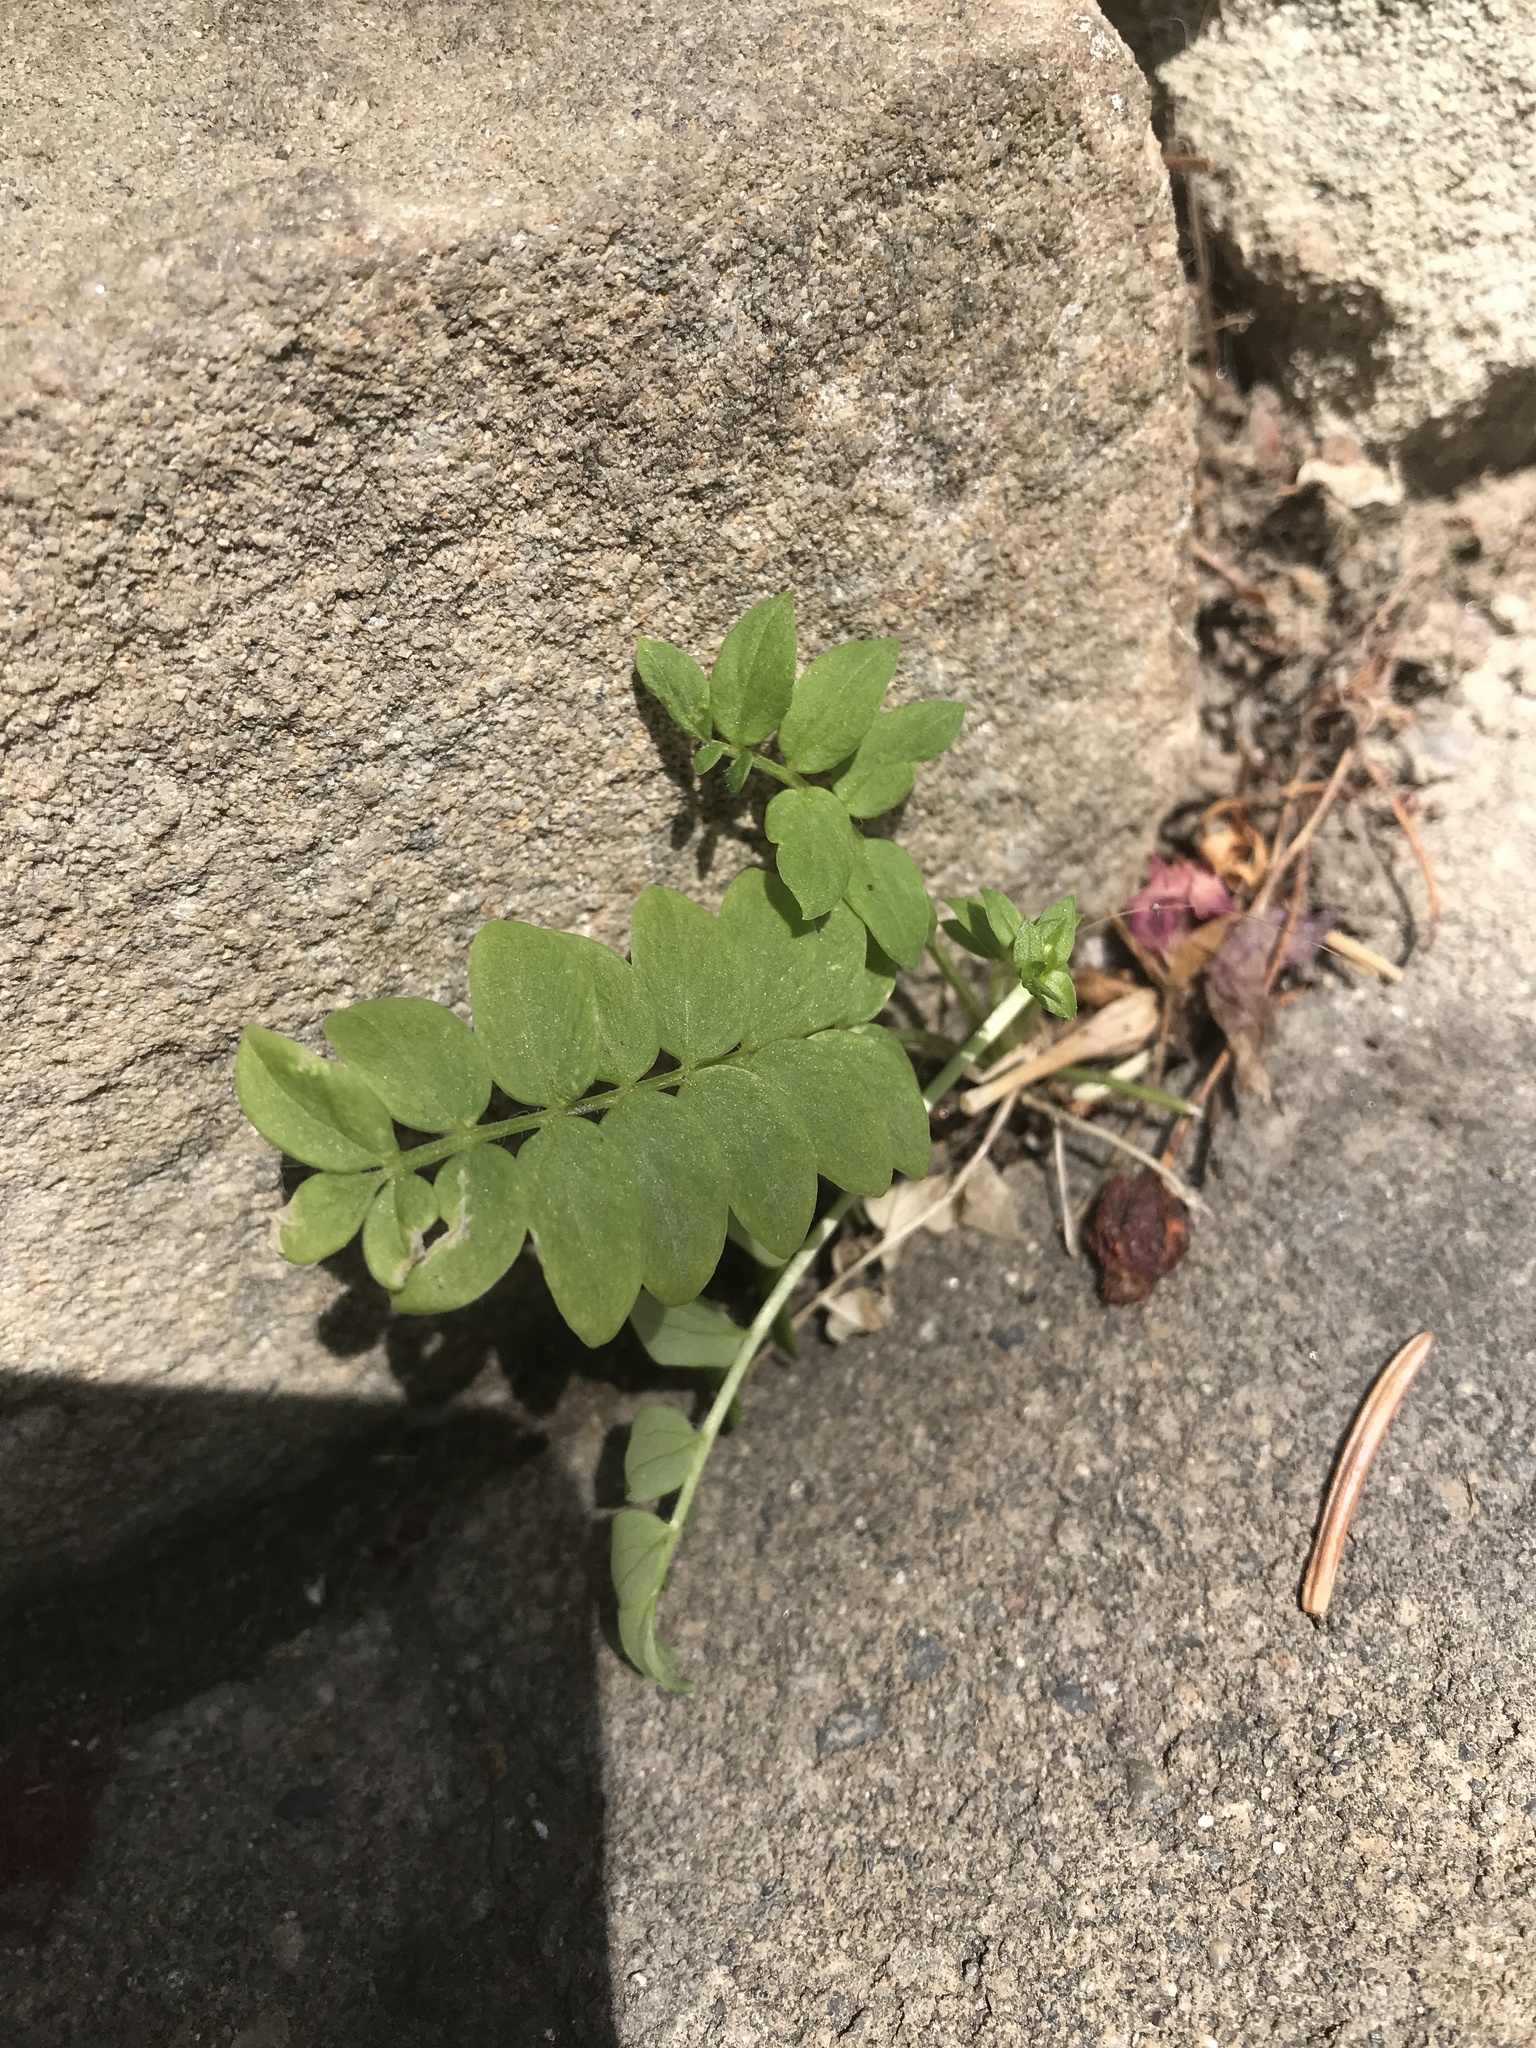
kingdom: Plantae
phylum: Tracheophyta
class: Magnoliopsida
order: Ericales
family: Polemoniaceae
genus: Polemonium
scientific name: Polemonium caeruleum
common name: Jacob's-ladder
